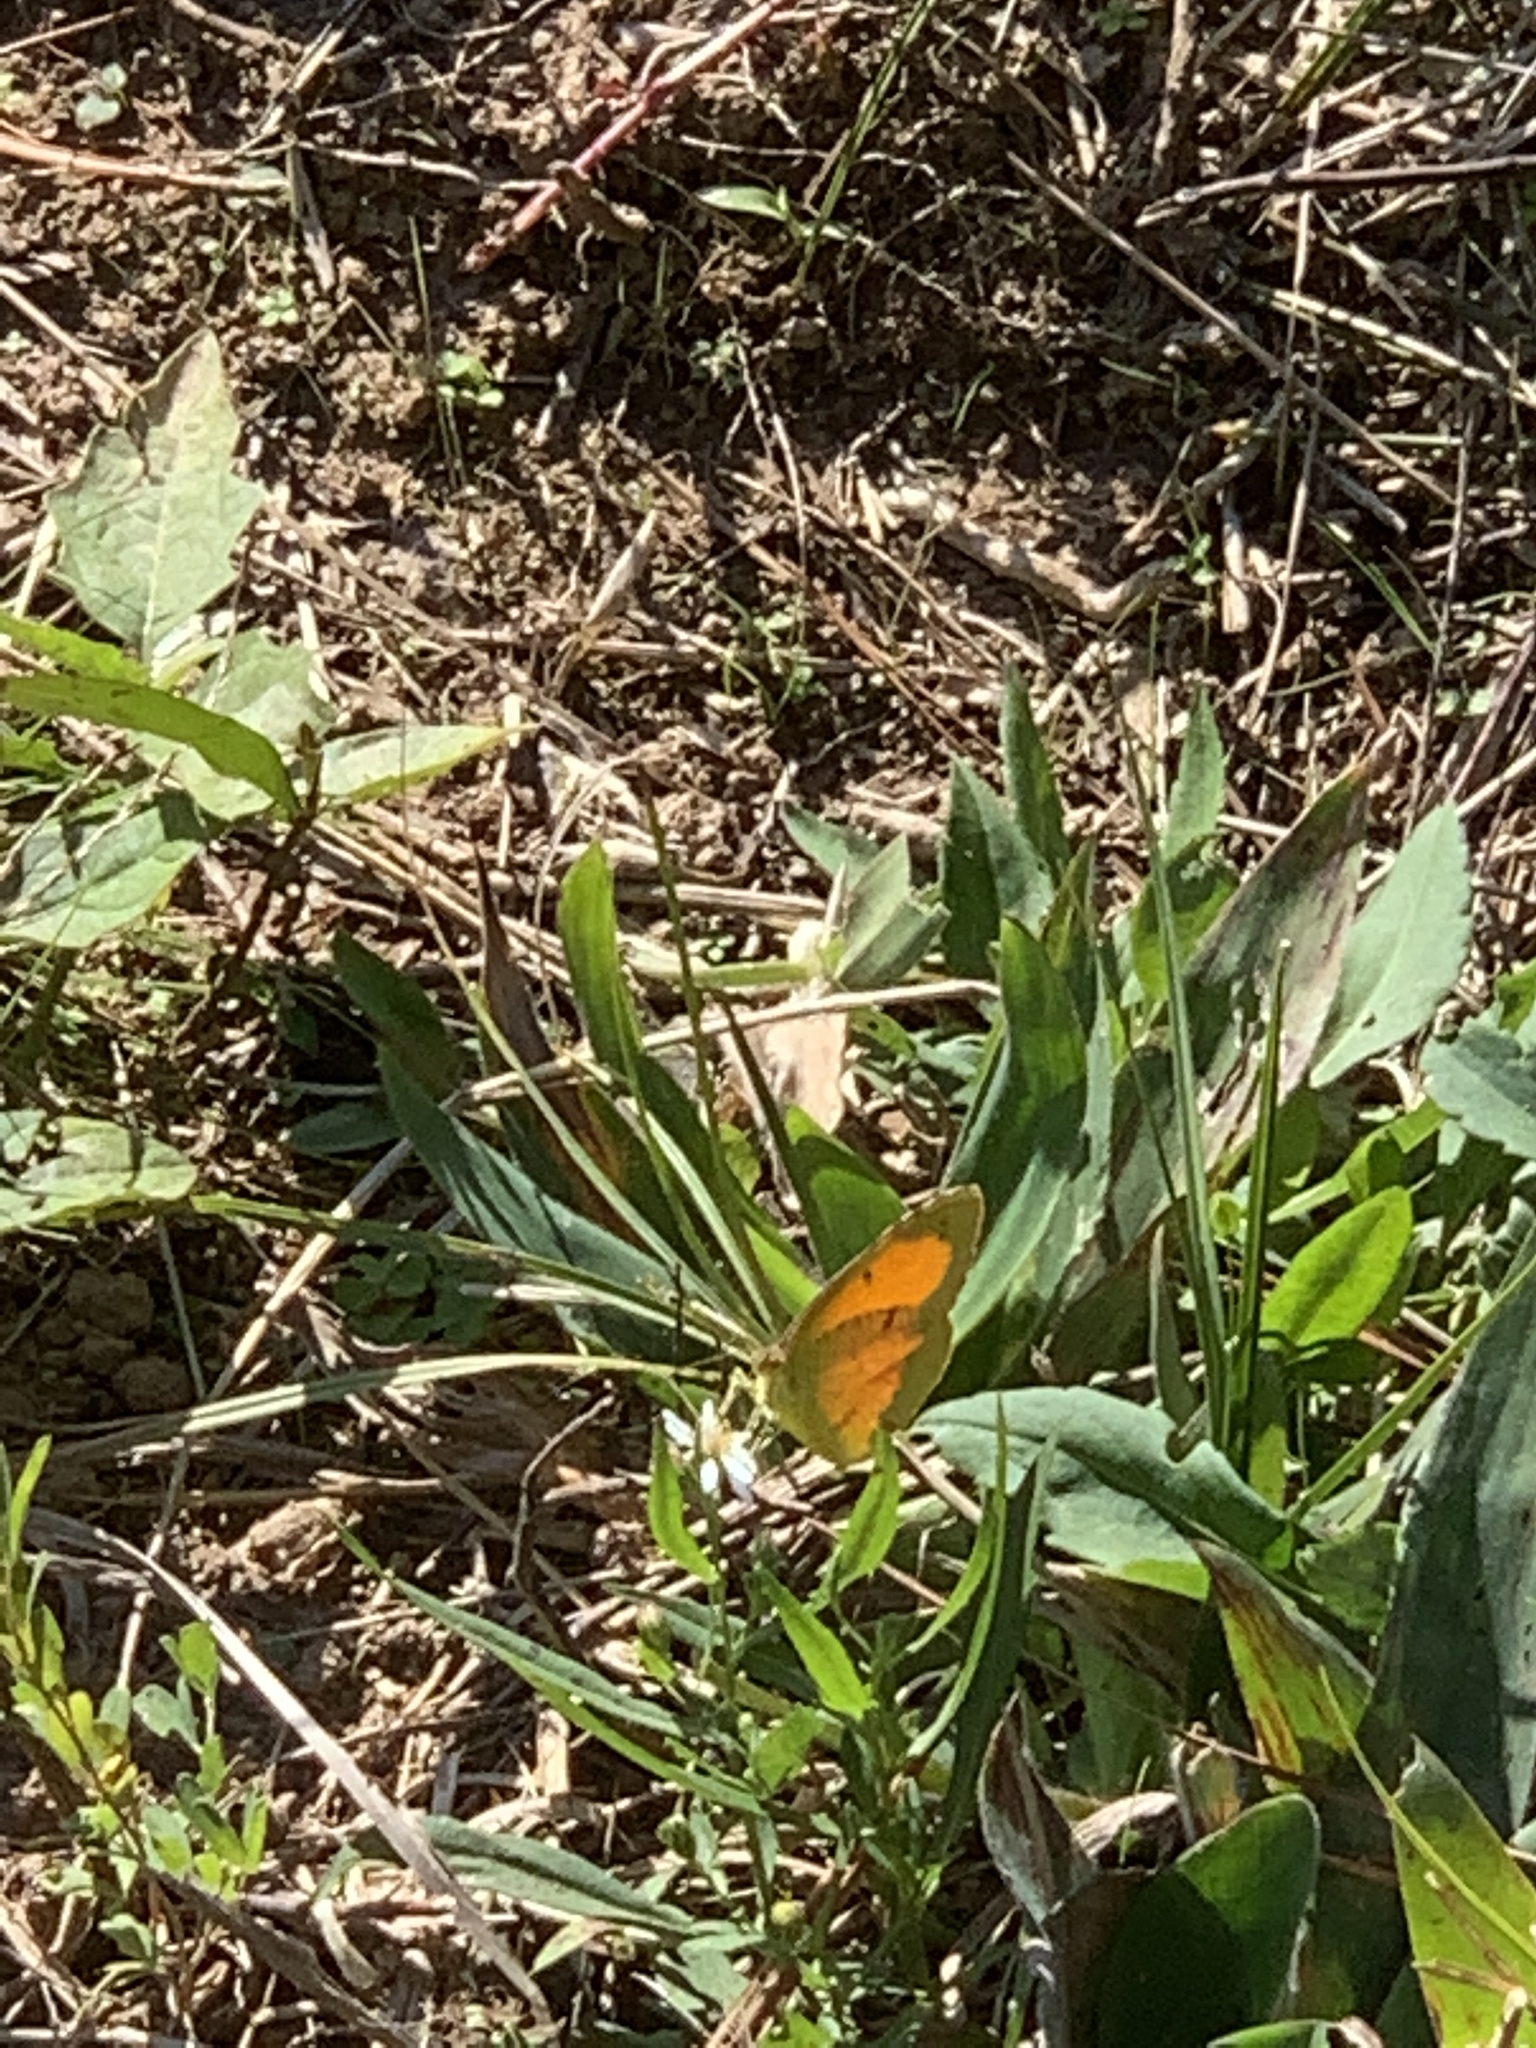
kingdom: Animalia
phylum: Arthropoda
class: Insecta
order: Lepidoptera
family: Pieridae
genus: Abaeis
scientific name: Abaeis nicippe
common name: Sleepy orange
